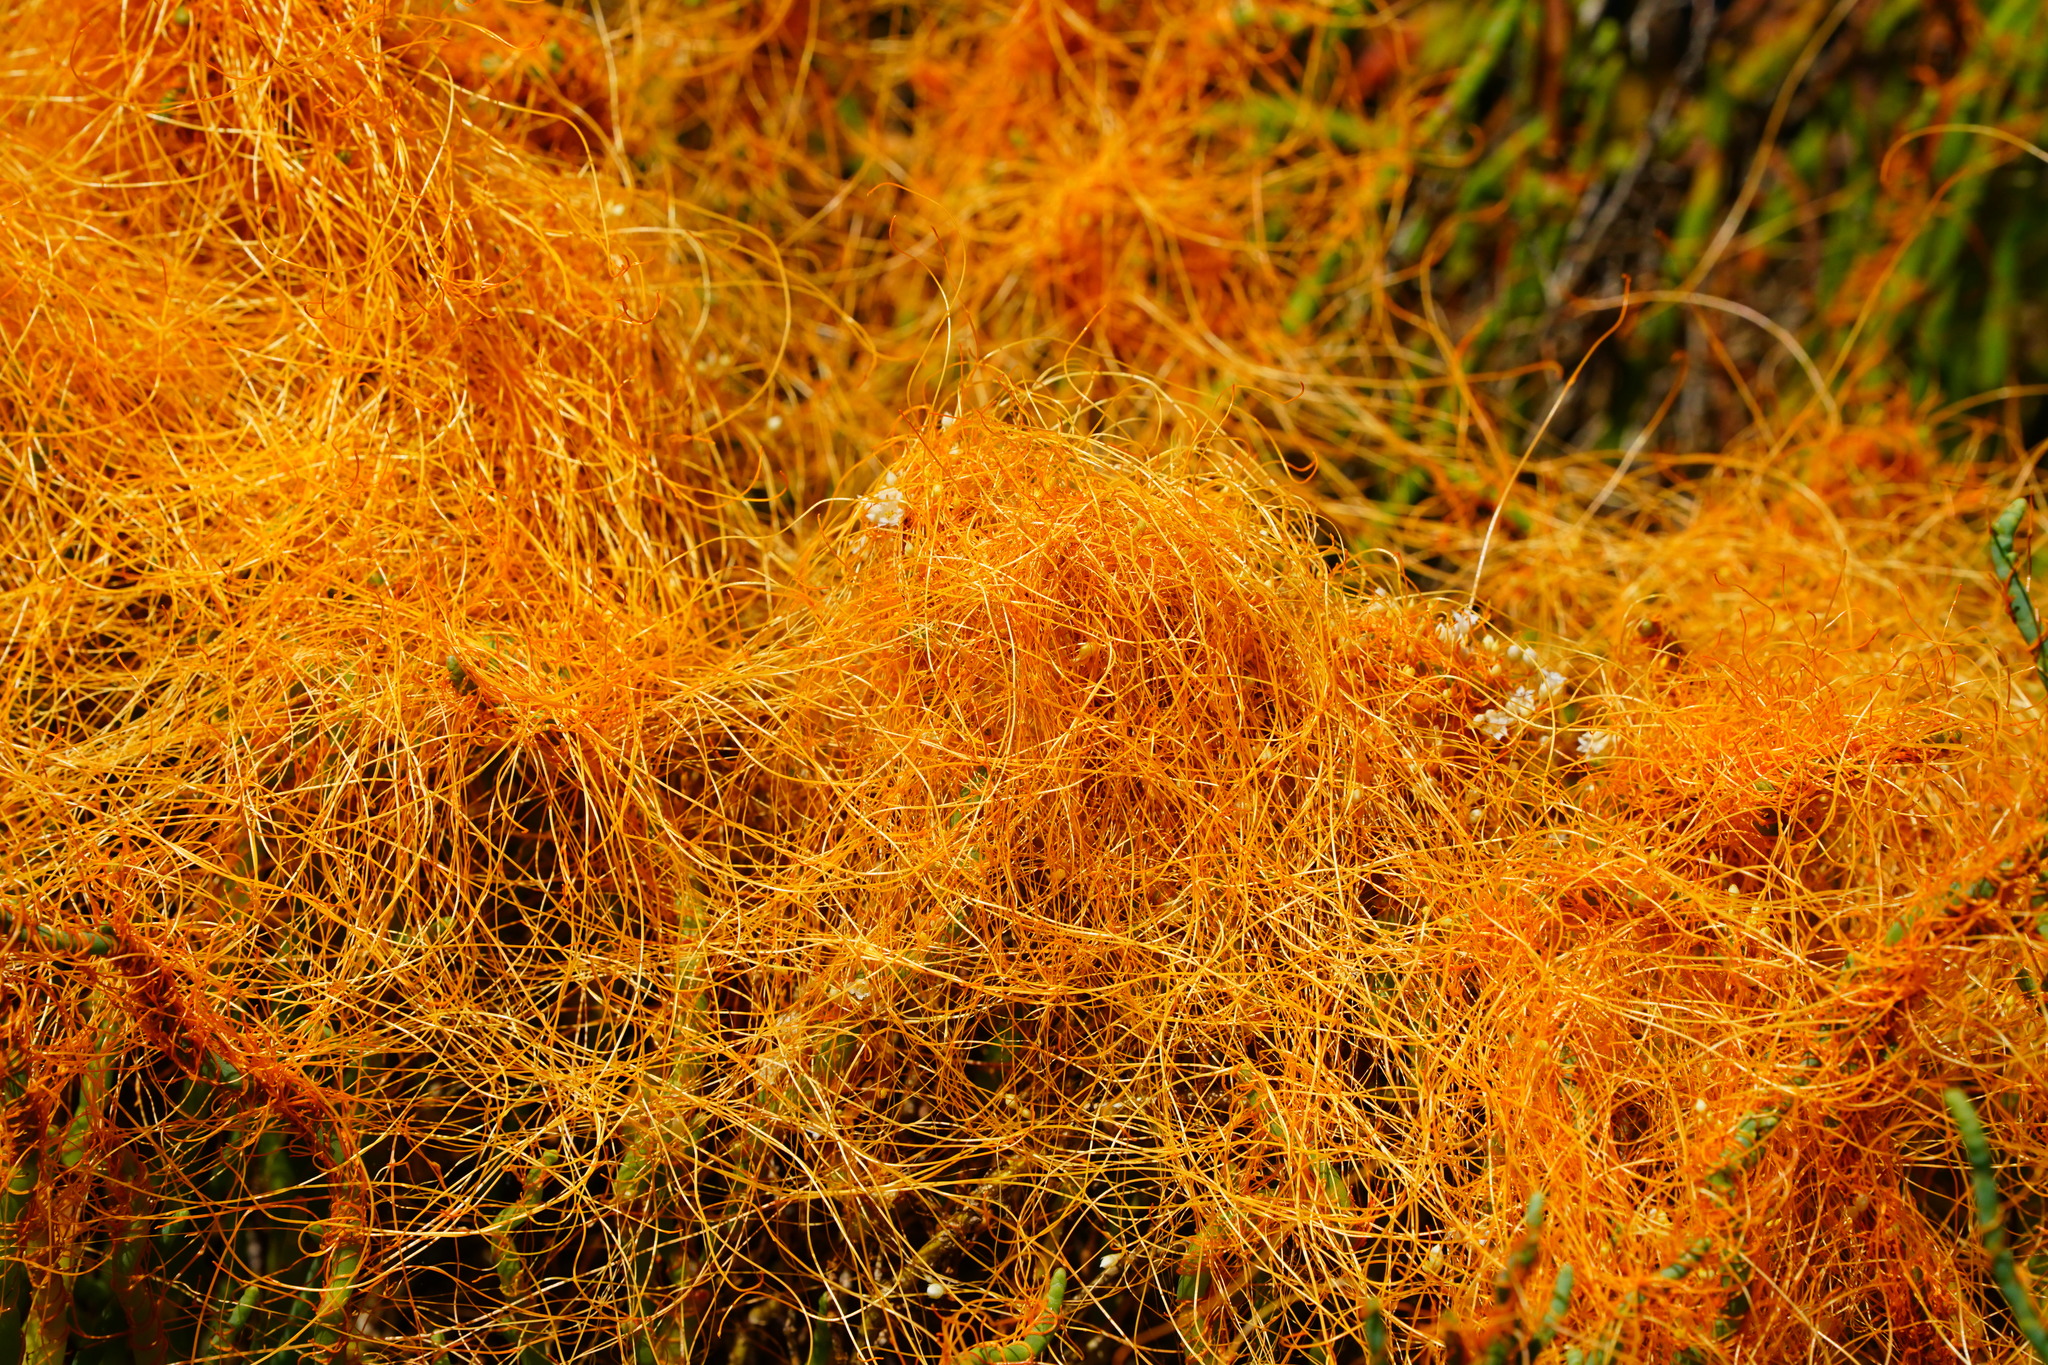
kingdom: Plantae
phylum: Tracheophyta
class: Magnoliopsida
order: Solanales
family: Convolvulaceae
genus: Cuscuta
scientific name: Cuscuta pacifica
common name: Large saltmarsh dodder
